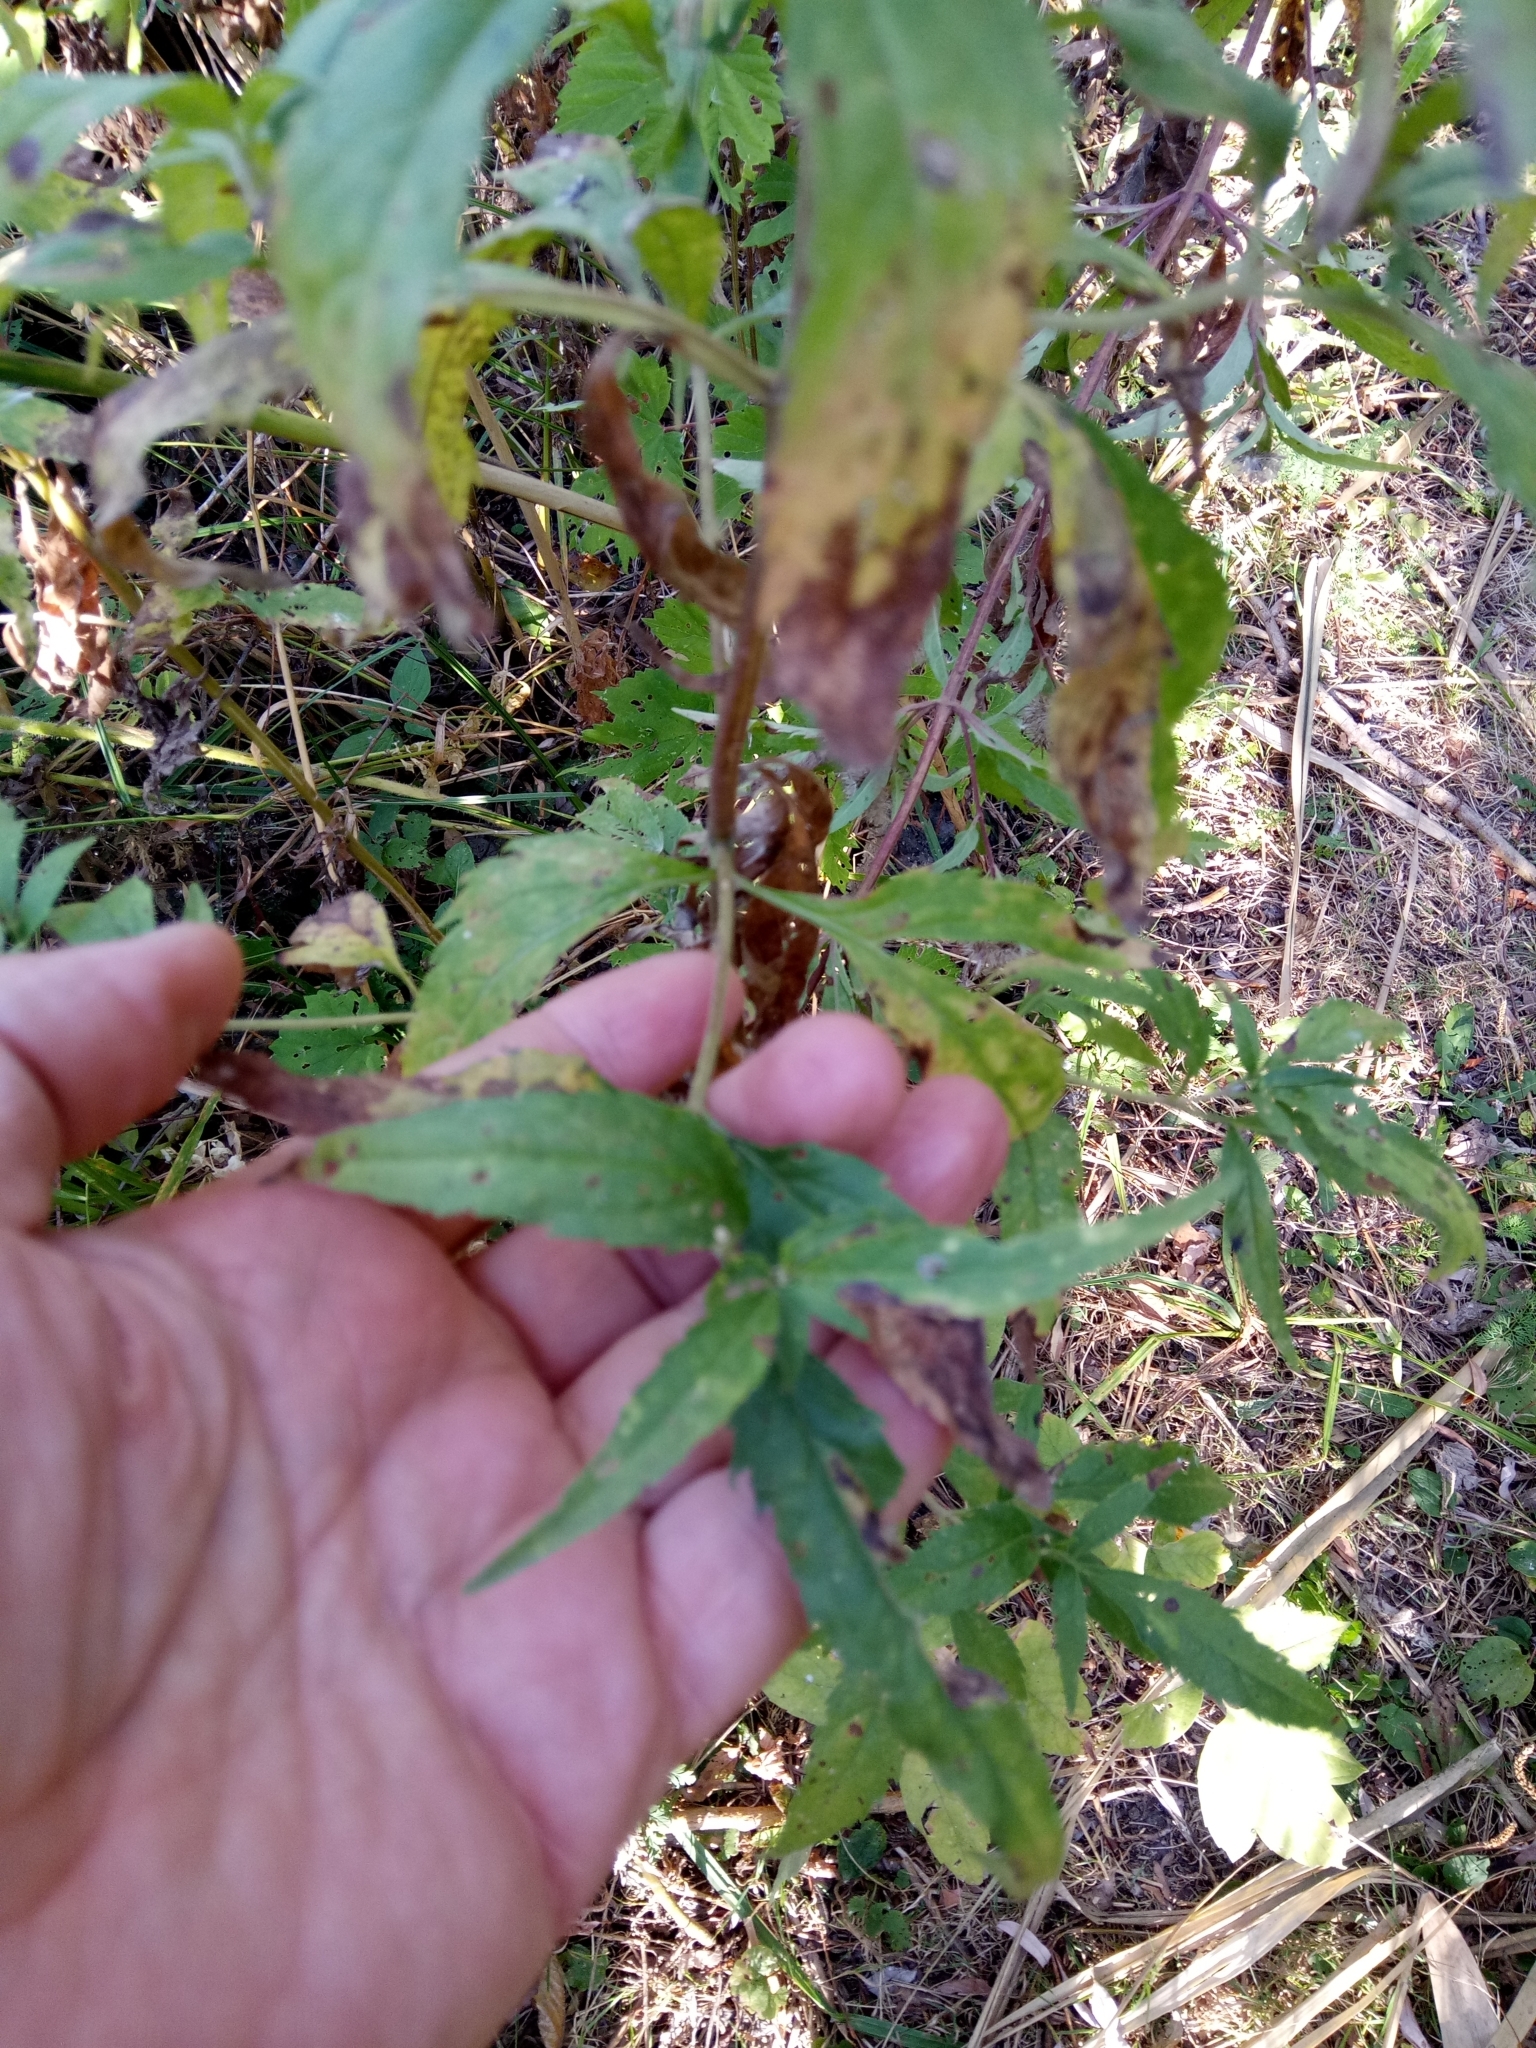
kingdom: Plantae
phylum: Tracheophyta
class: Magnoliopsida
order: Asterales
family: Asteraceae
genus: Eupatorium
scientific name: Eupatorium cannabinum
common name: Hemp-agrimony
